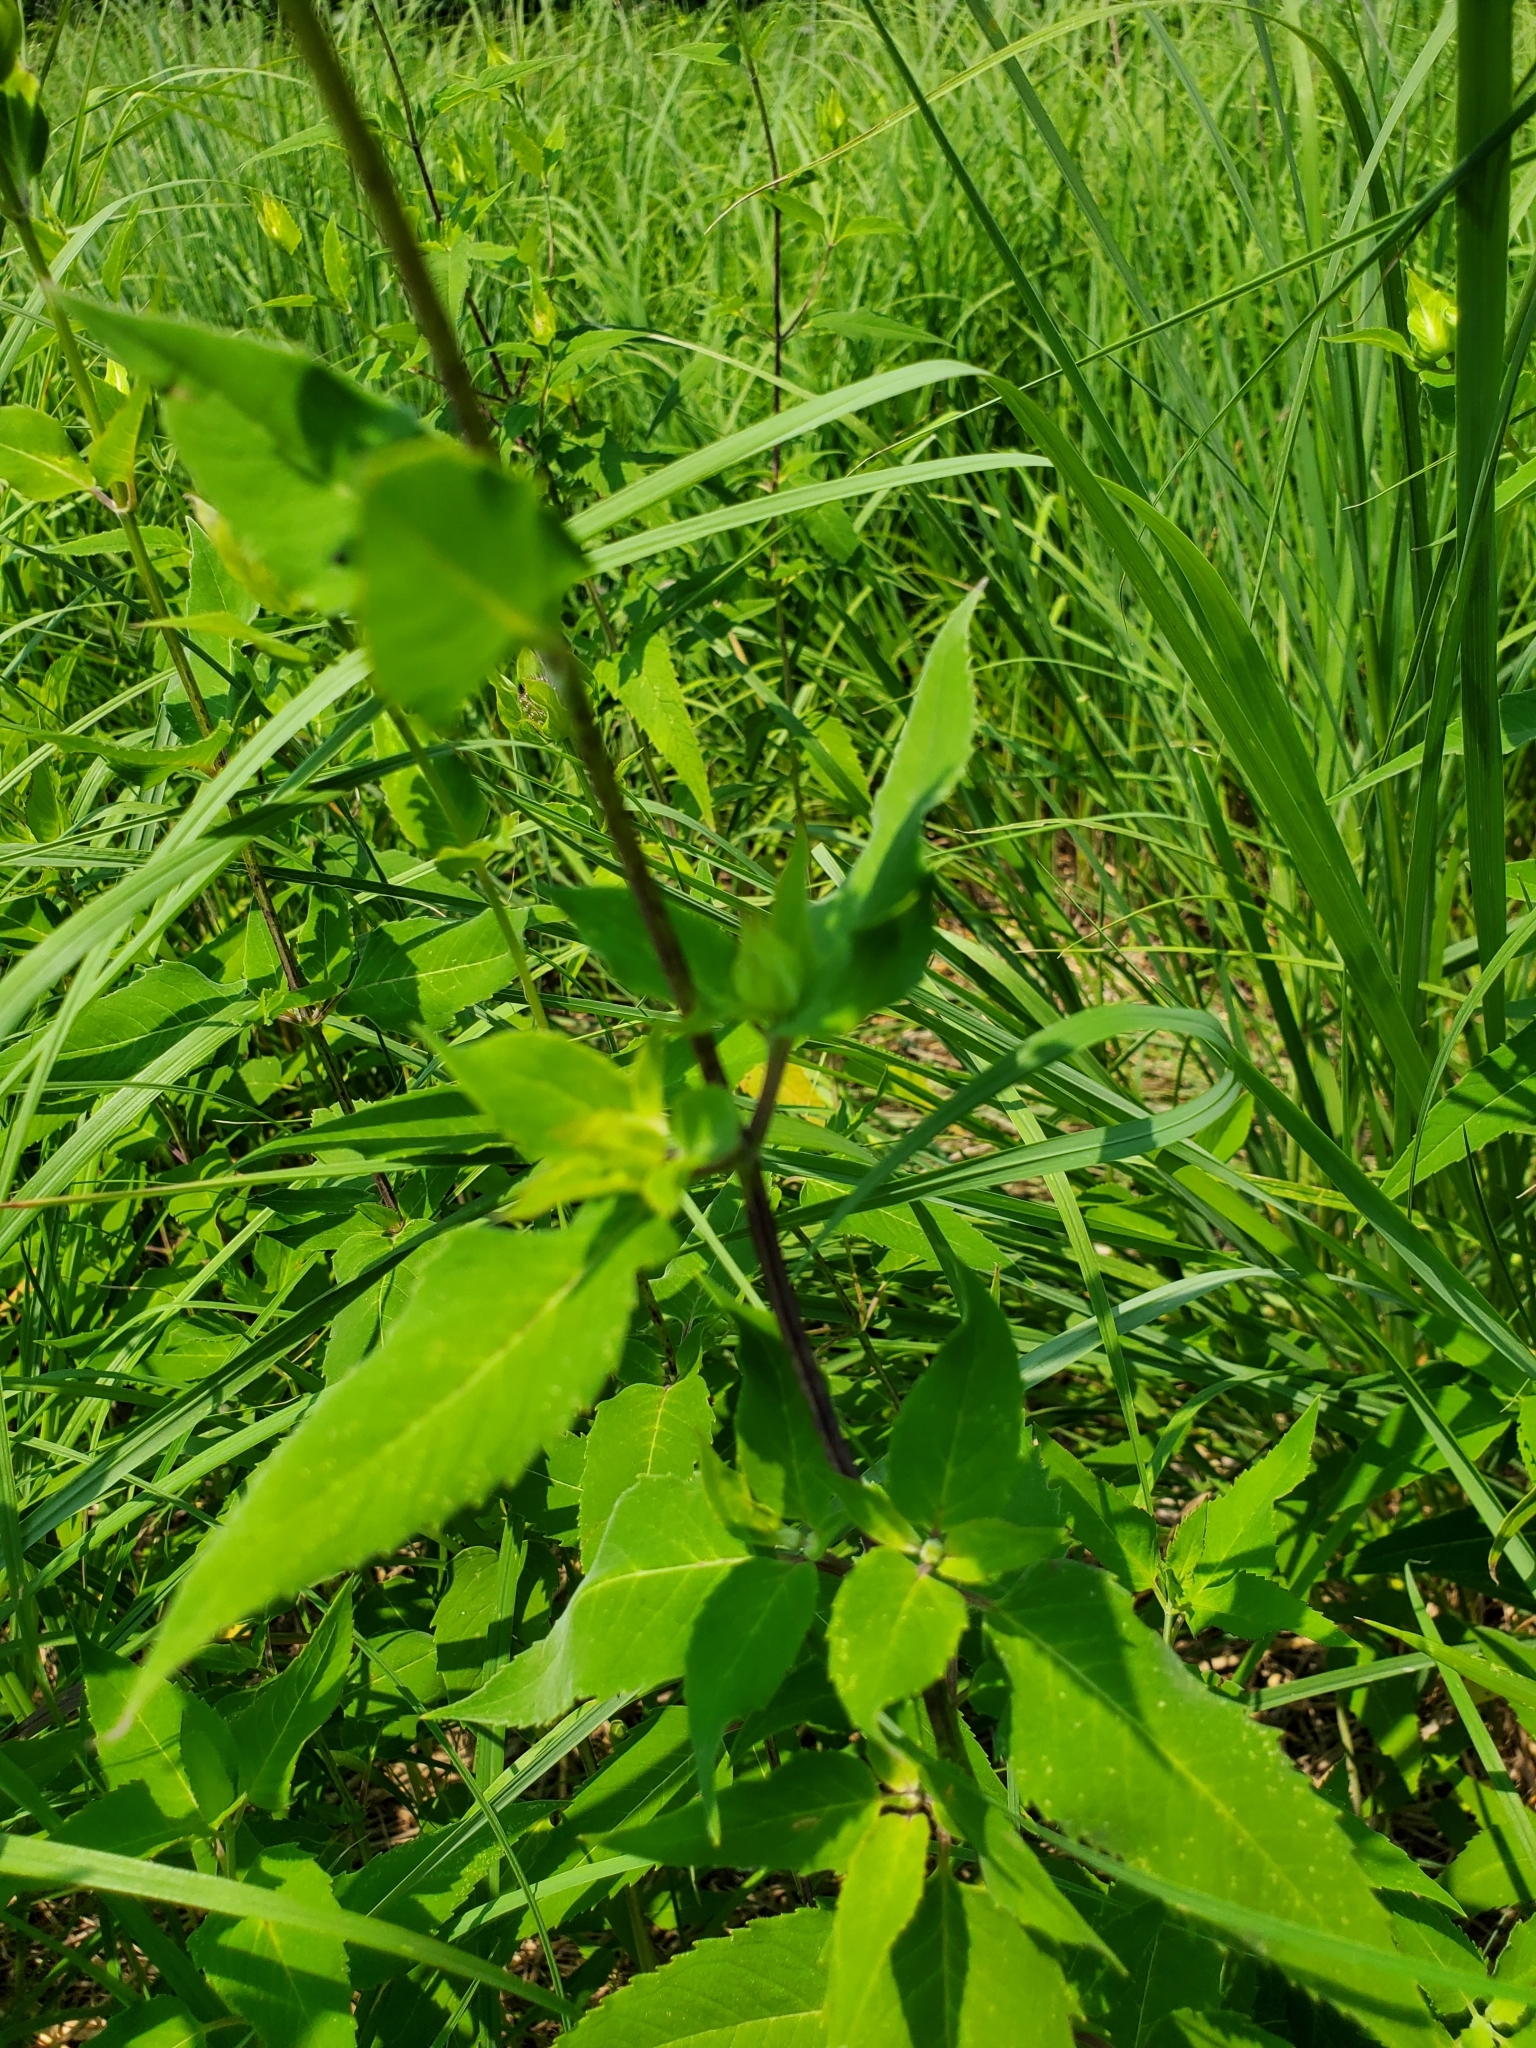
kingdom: Plantae
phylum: Tracheophyta
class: Magnoliopsida
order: Lamiales
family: Lamiaceae
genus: Monarda
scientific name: Monarda fistulosa
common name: Purple beebalm
